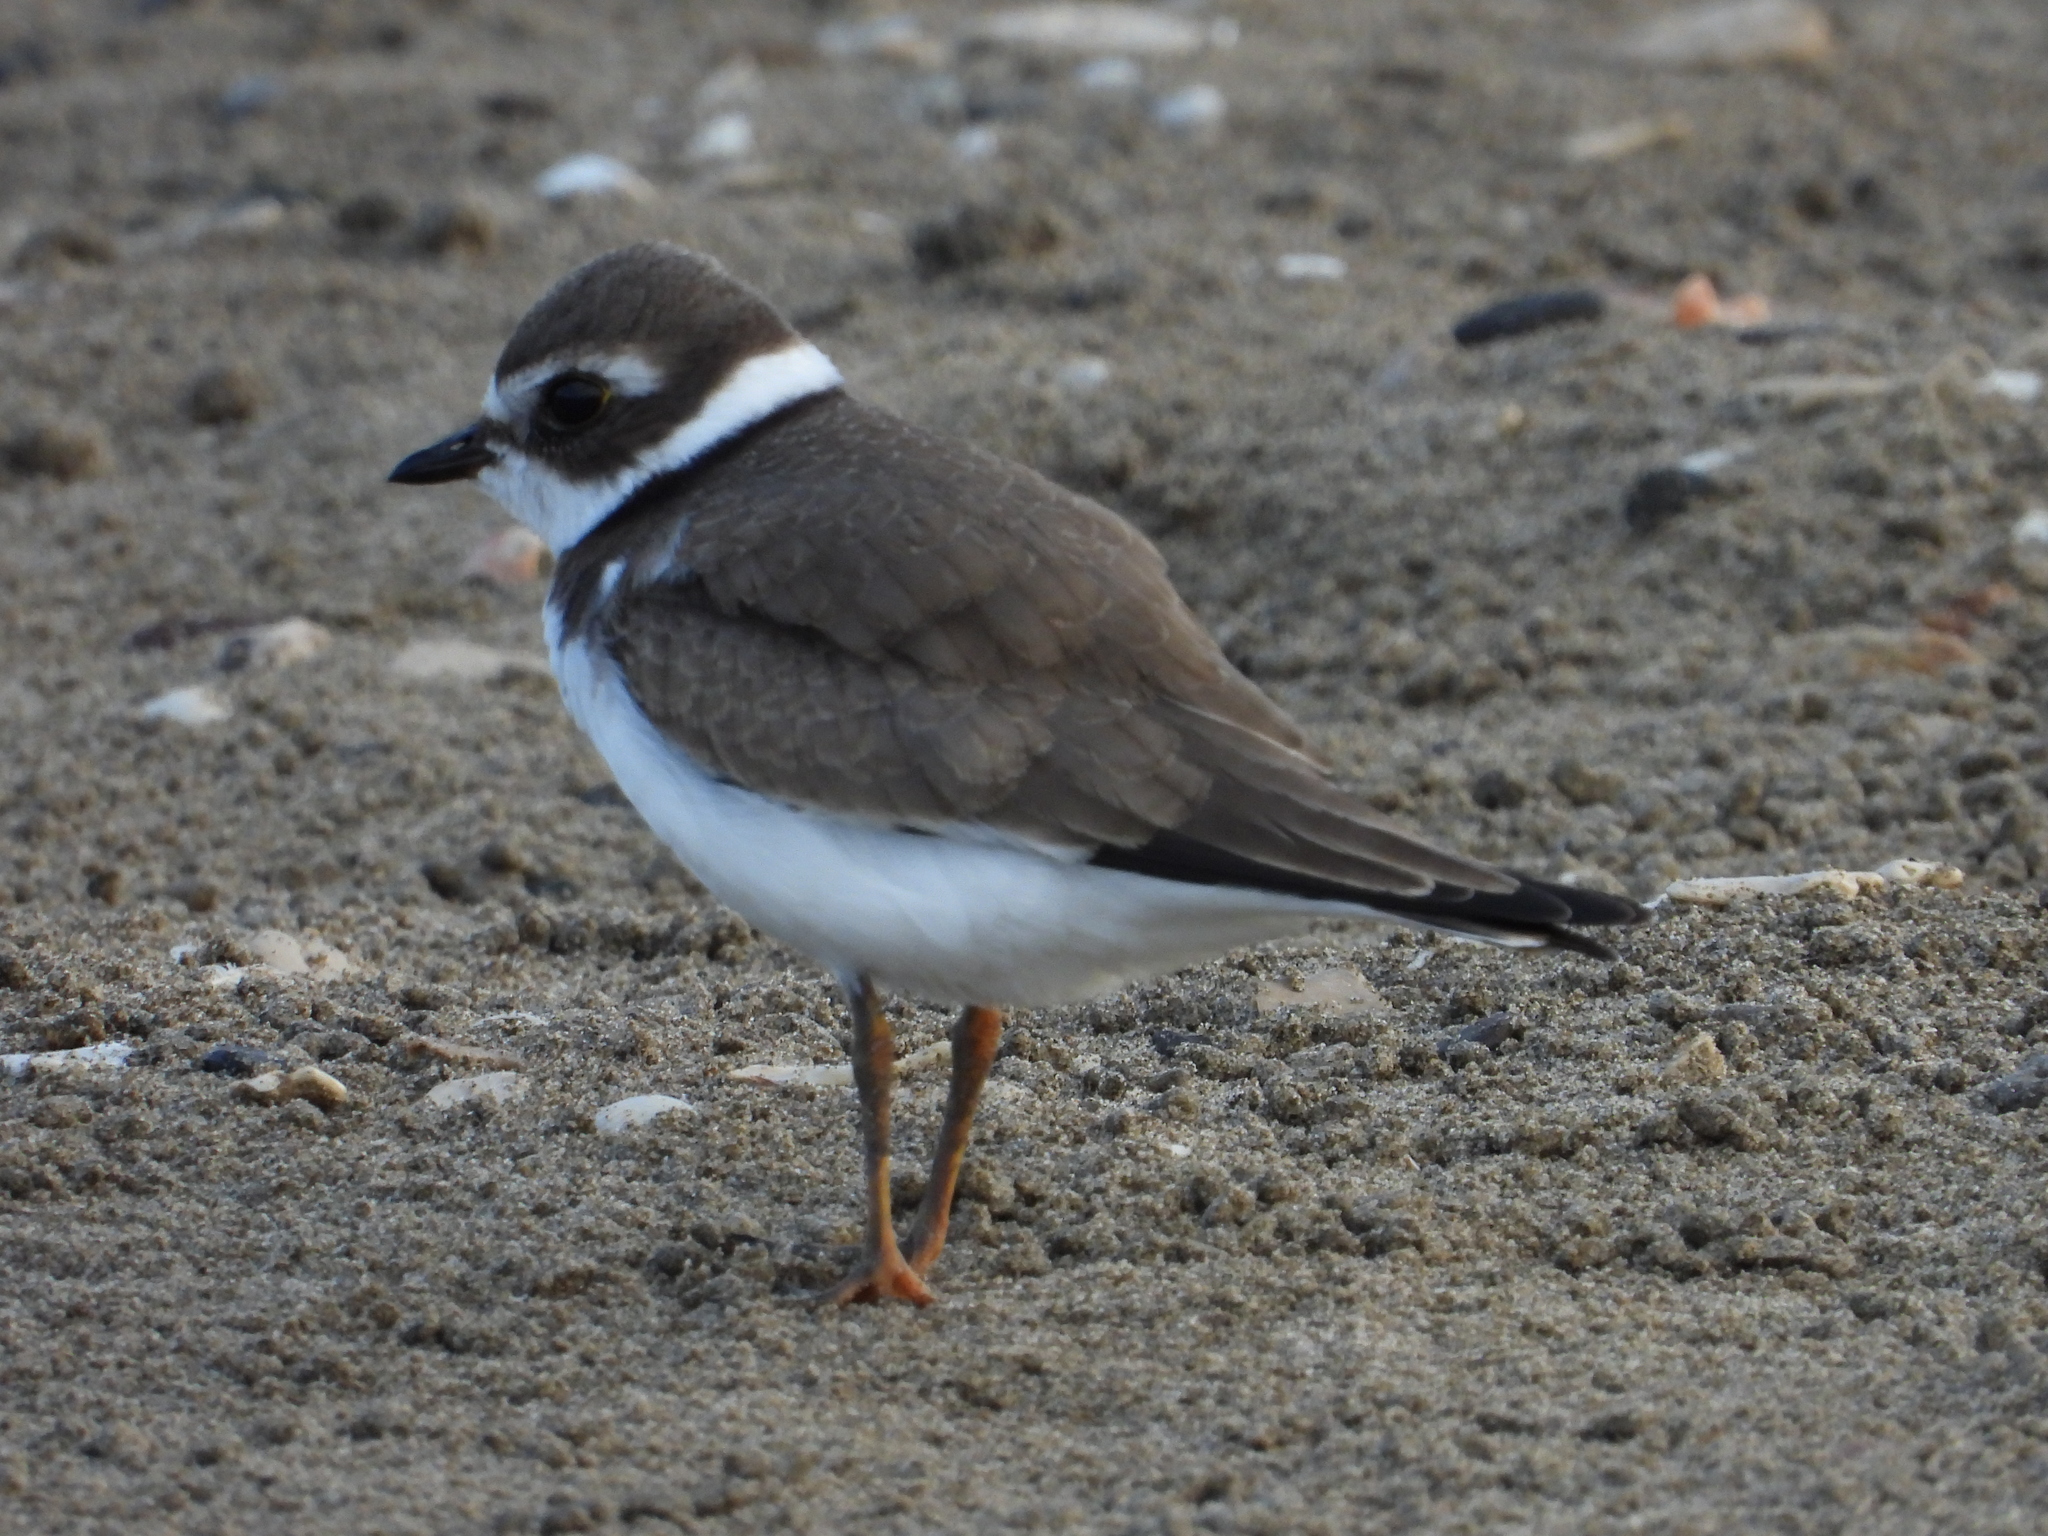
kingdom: Animalia
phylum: Chordata
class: Aves
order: Charadriiformes
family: Charadriidae
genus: Charadrius
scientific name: Charadrius semipalmatus
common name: Semipalmated plover
